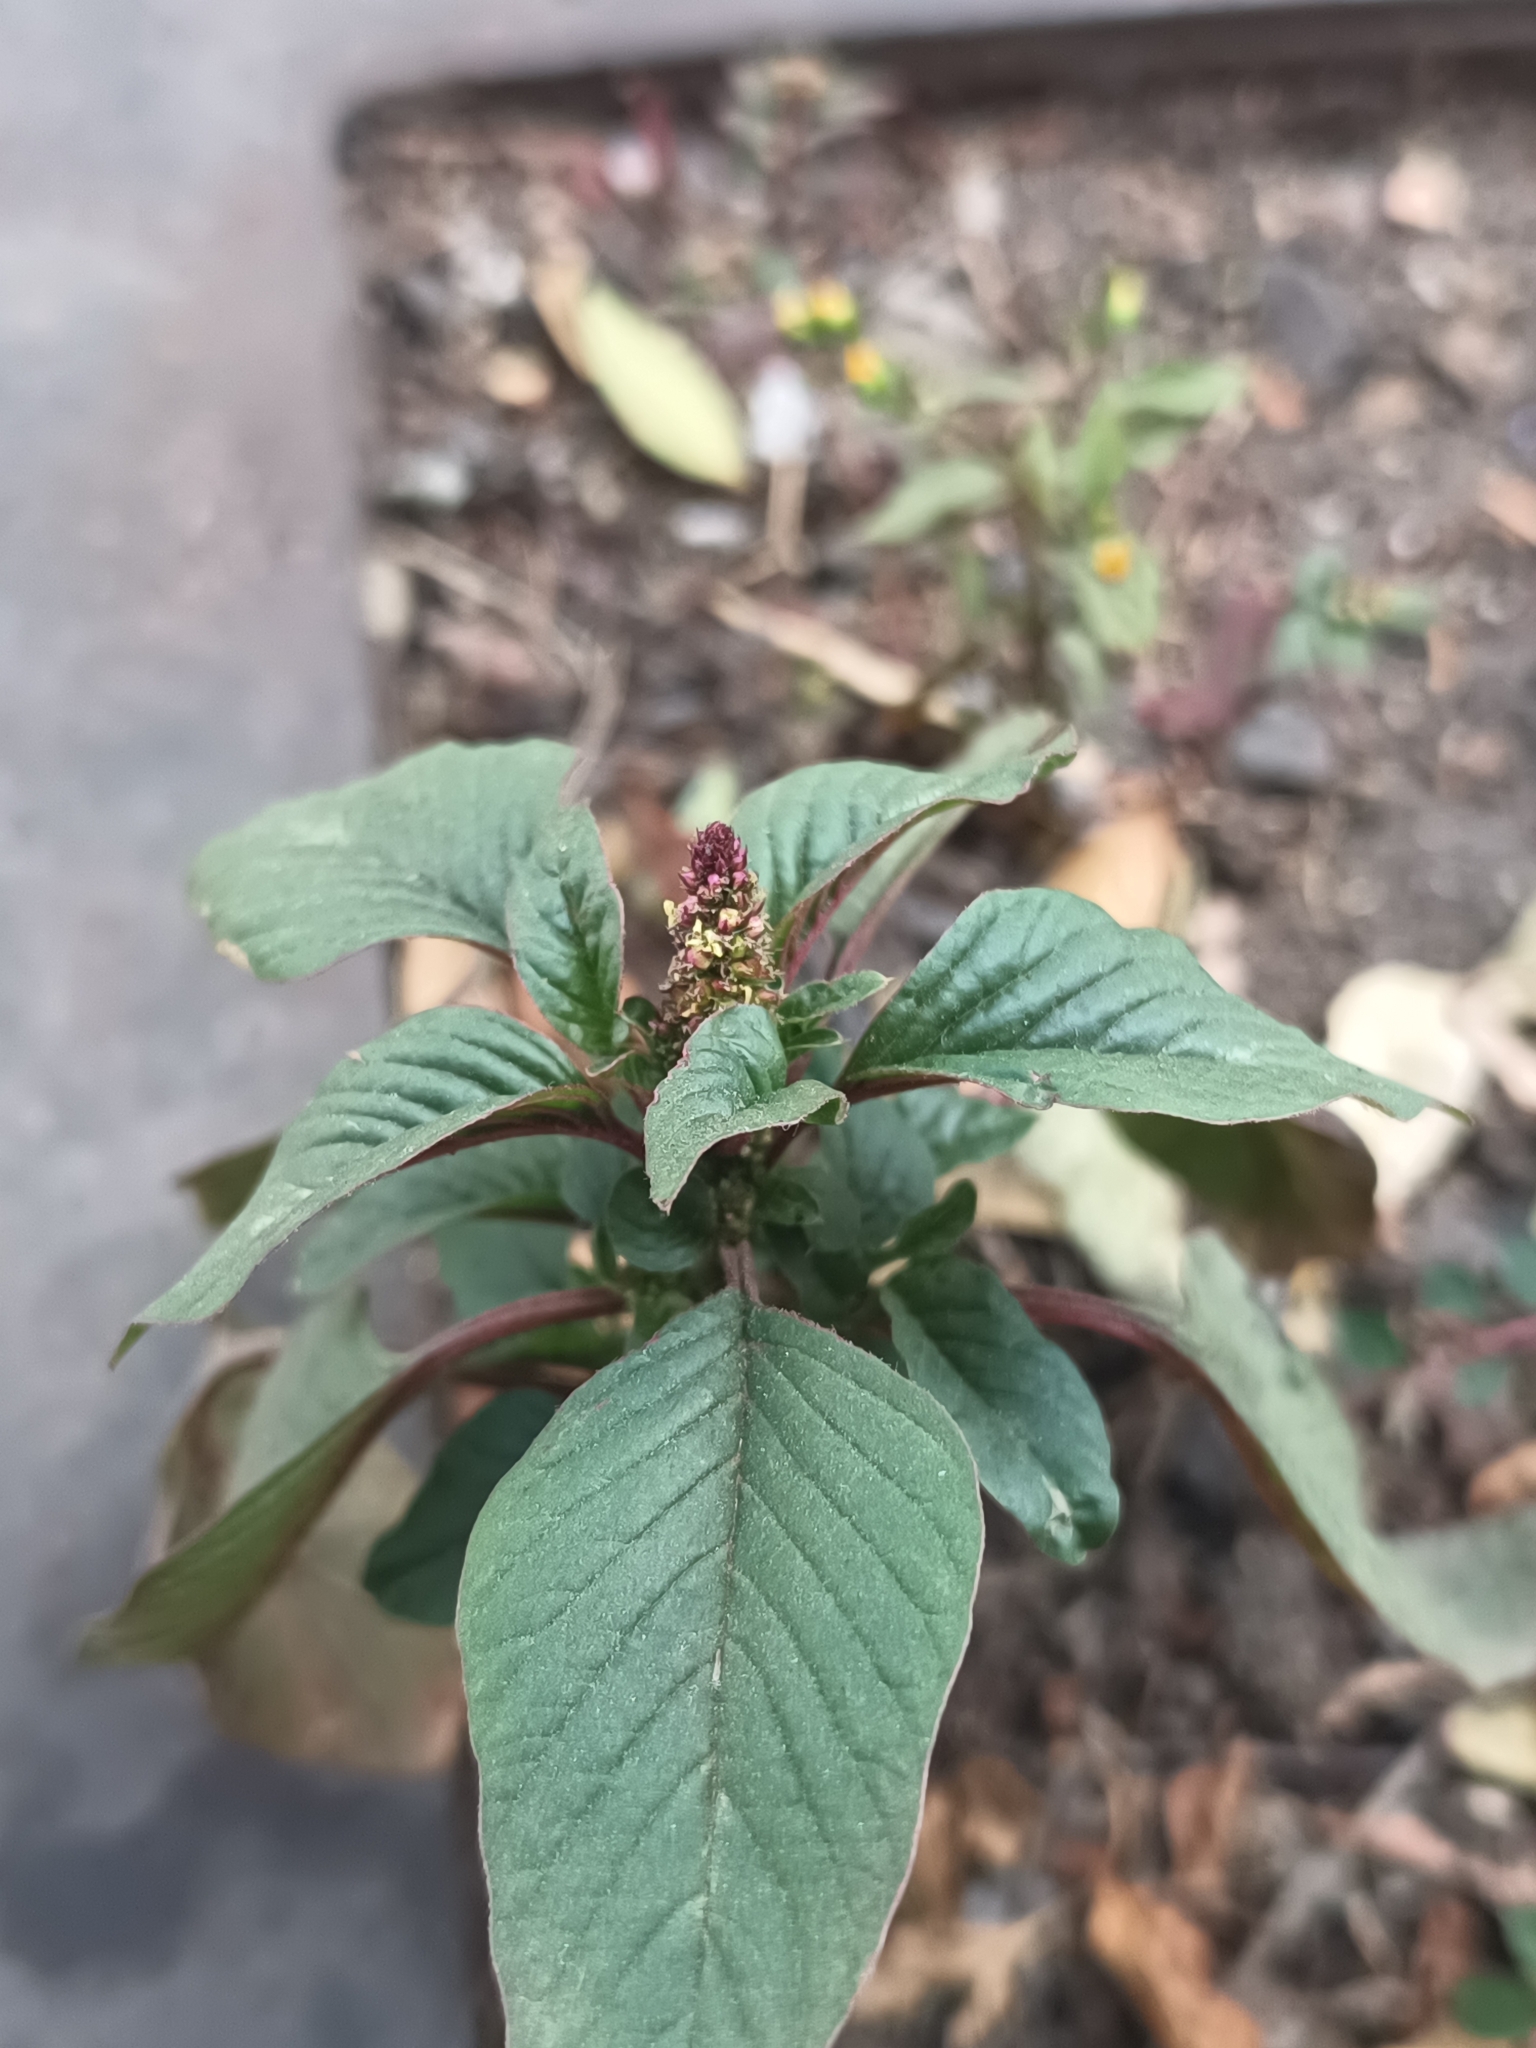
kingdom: Plantae
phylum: Tracheophyta
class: Magnoliopsida
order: Caryophyllales
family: Amaranthaceae
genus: Amaranthus
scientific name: Amaranthus hybridus
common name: Green amaranth
